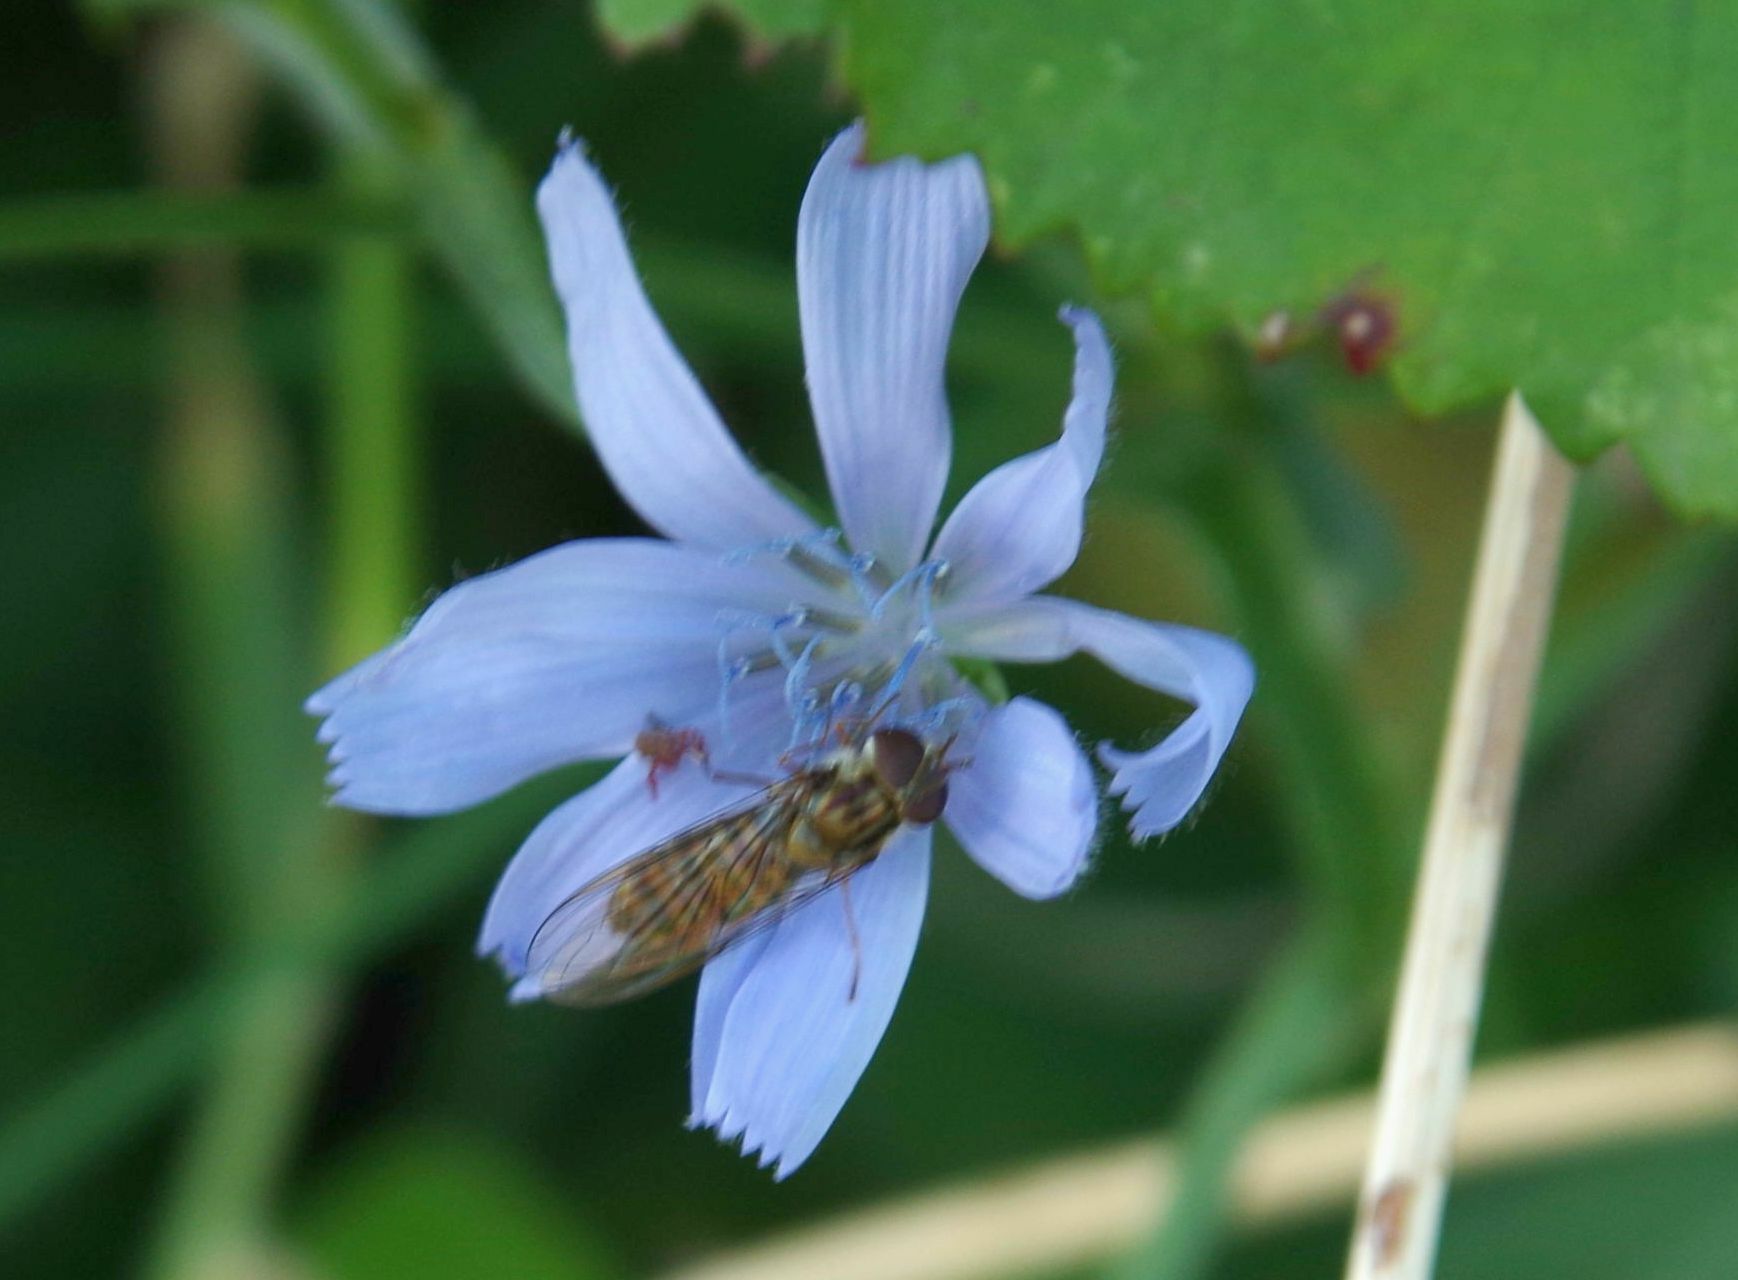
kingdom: Animalia
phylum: Arthropoda
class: Insecta
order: Diptera
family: Syrphidae
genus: Episyrphus
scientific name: Episyrphus balteatus
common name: Marmalade hoverfly
